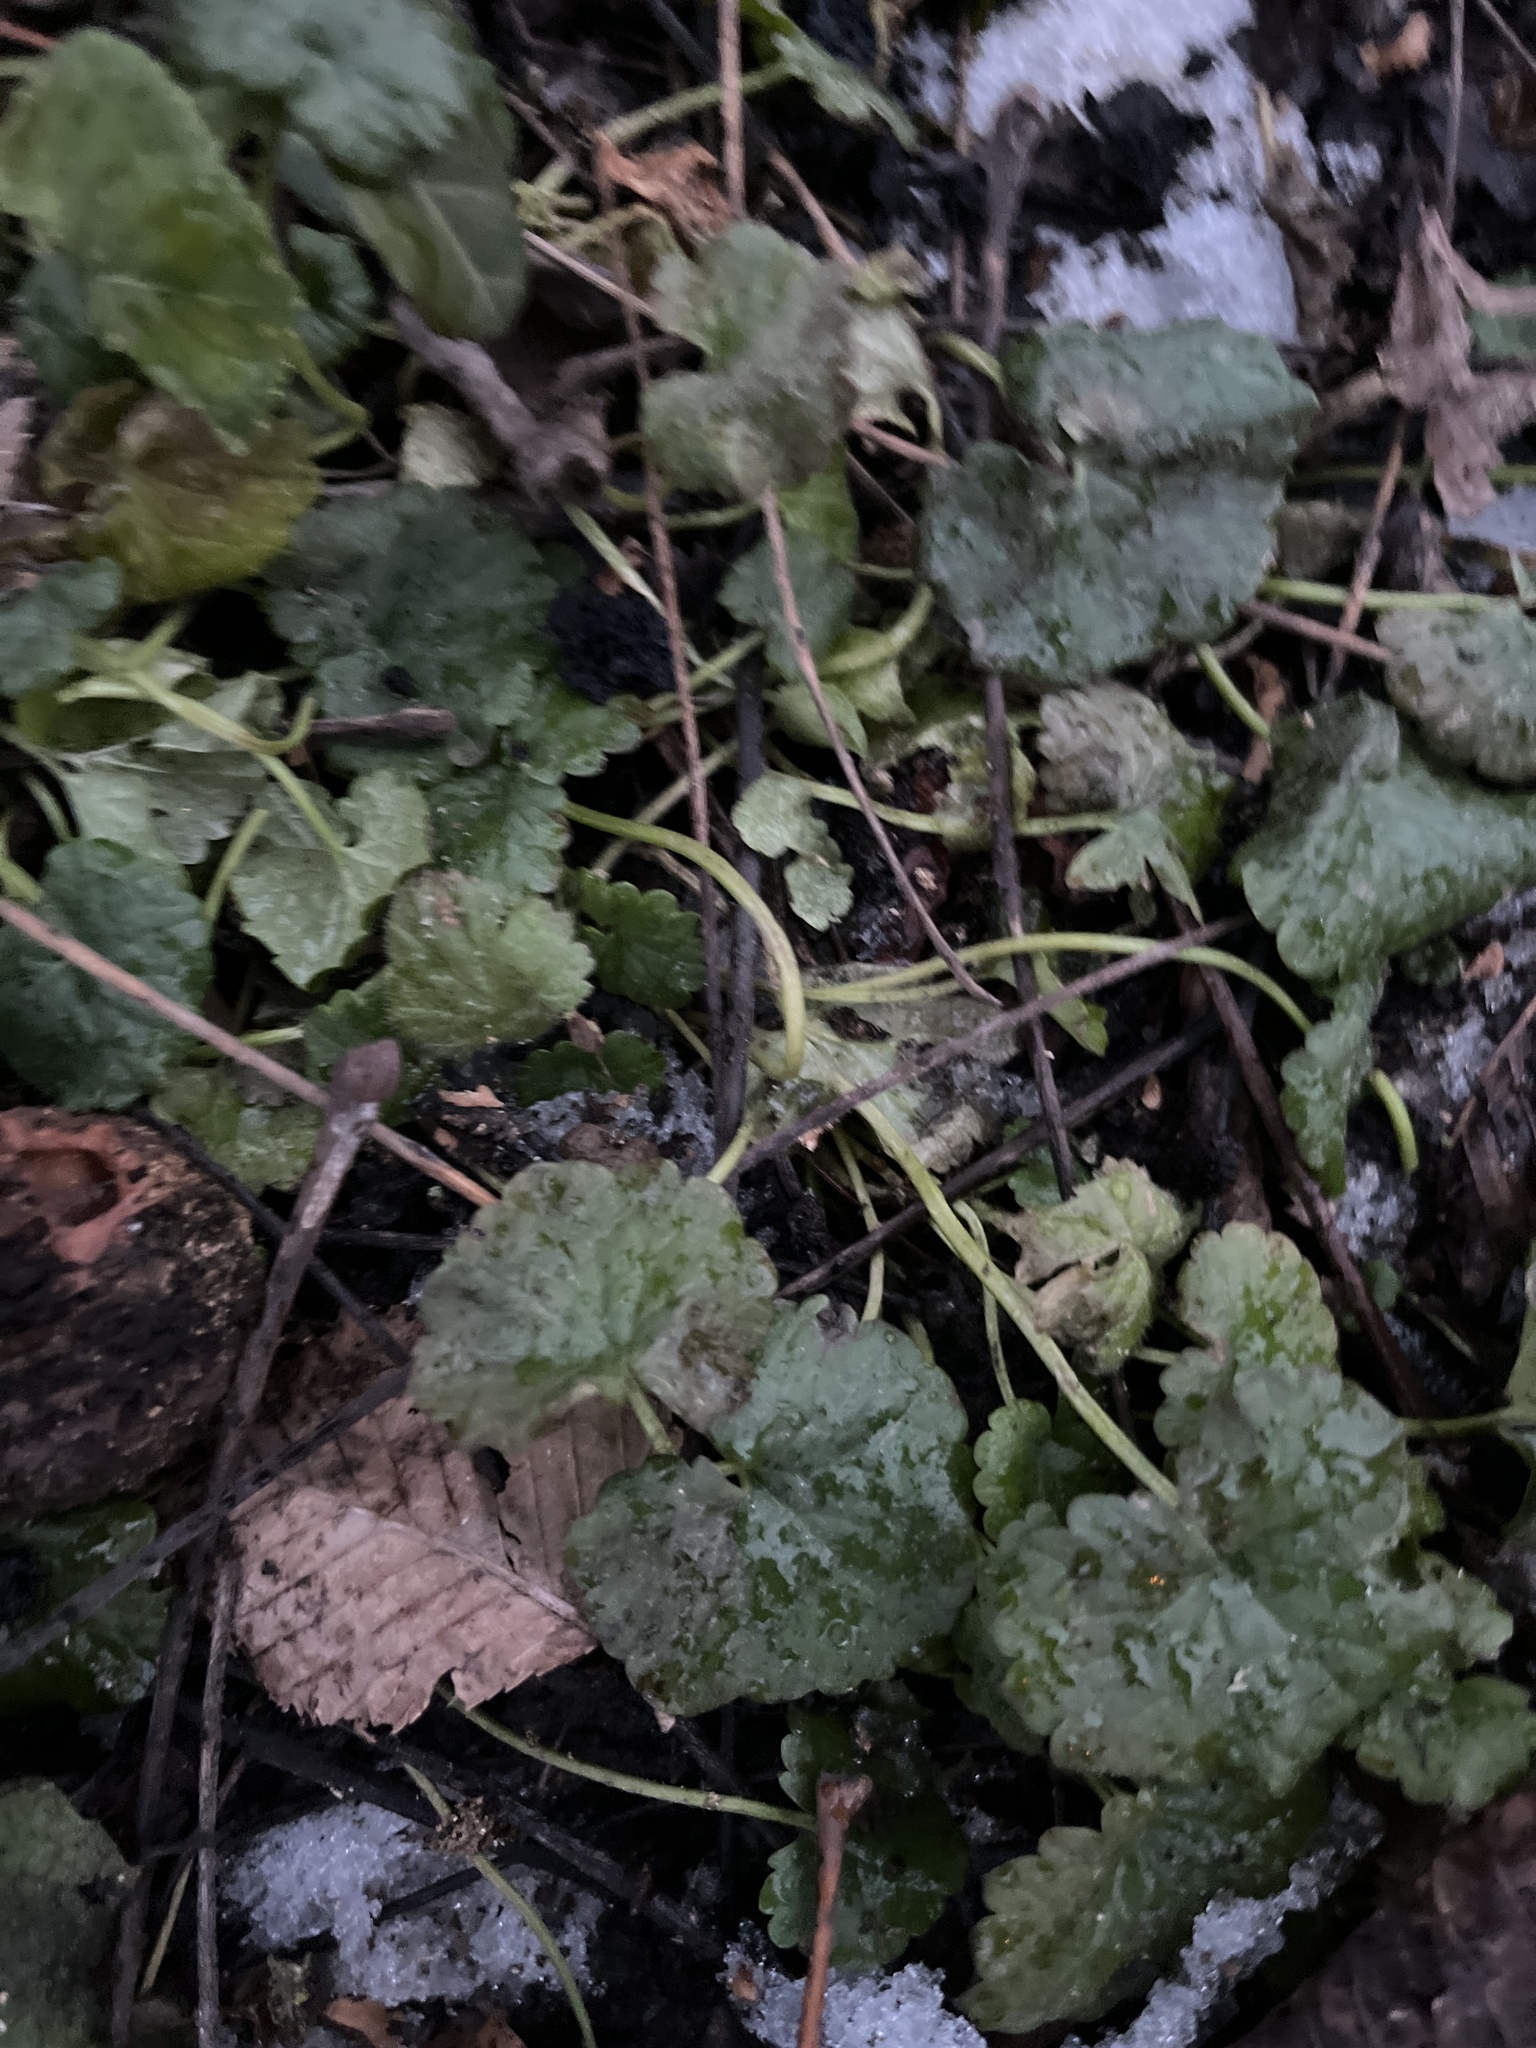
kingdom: Plantae
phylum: Tracheophyta
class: Magnoliopsida
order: Lamiales
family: Lamiaceae
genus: Glechoma
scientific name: Glechoma hederacea
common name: Ground ivy
